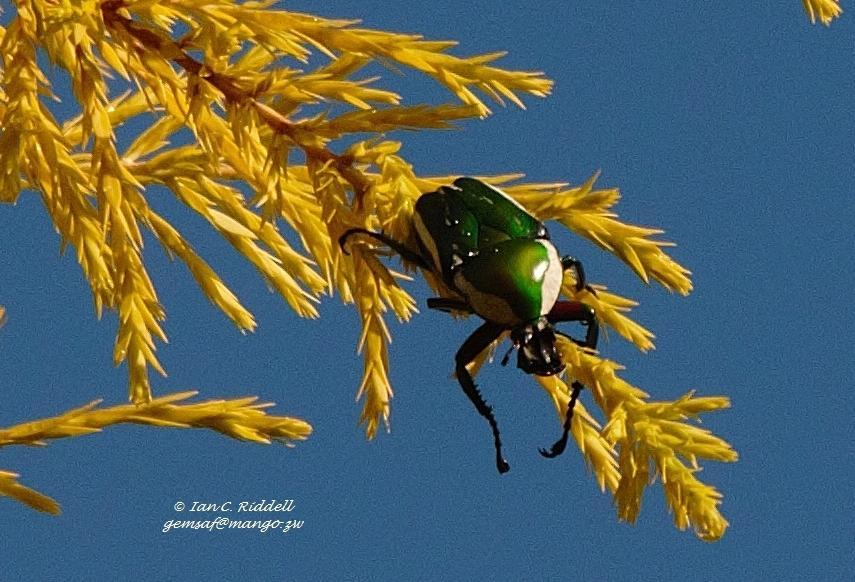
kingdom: Animalia
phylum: Arthropoda
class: Insecta
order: Coleoptera
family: Scarabaeidae
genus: Dicronorhina
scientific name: Dicronorhina derbyana
